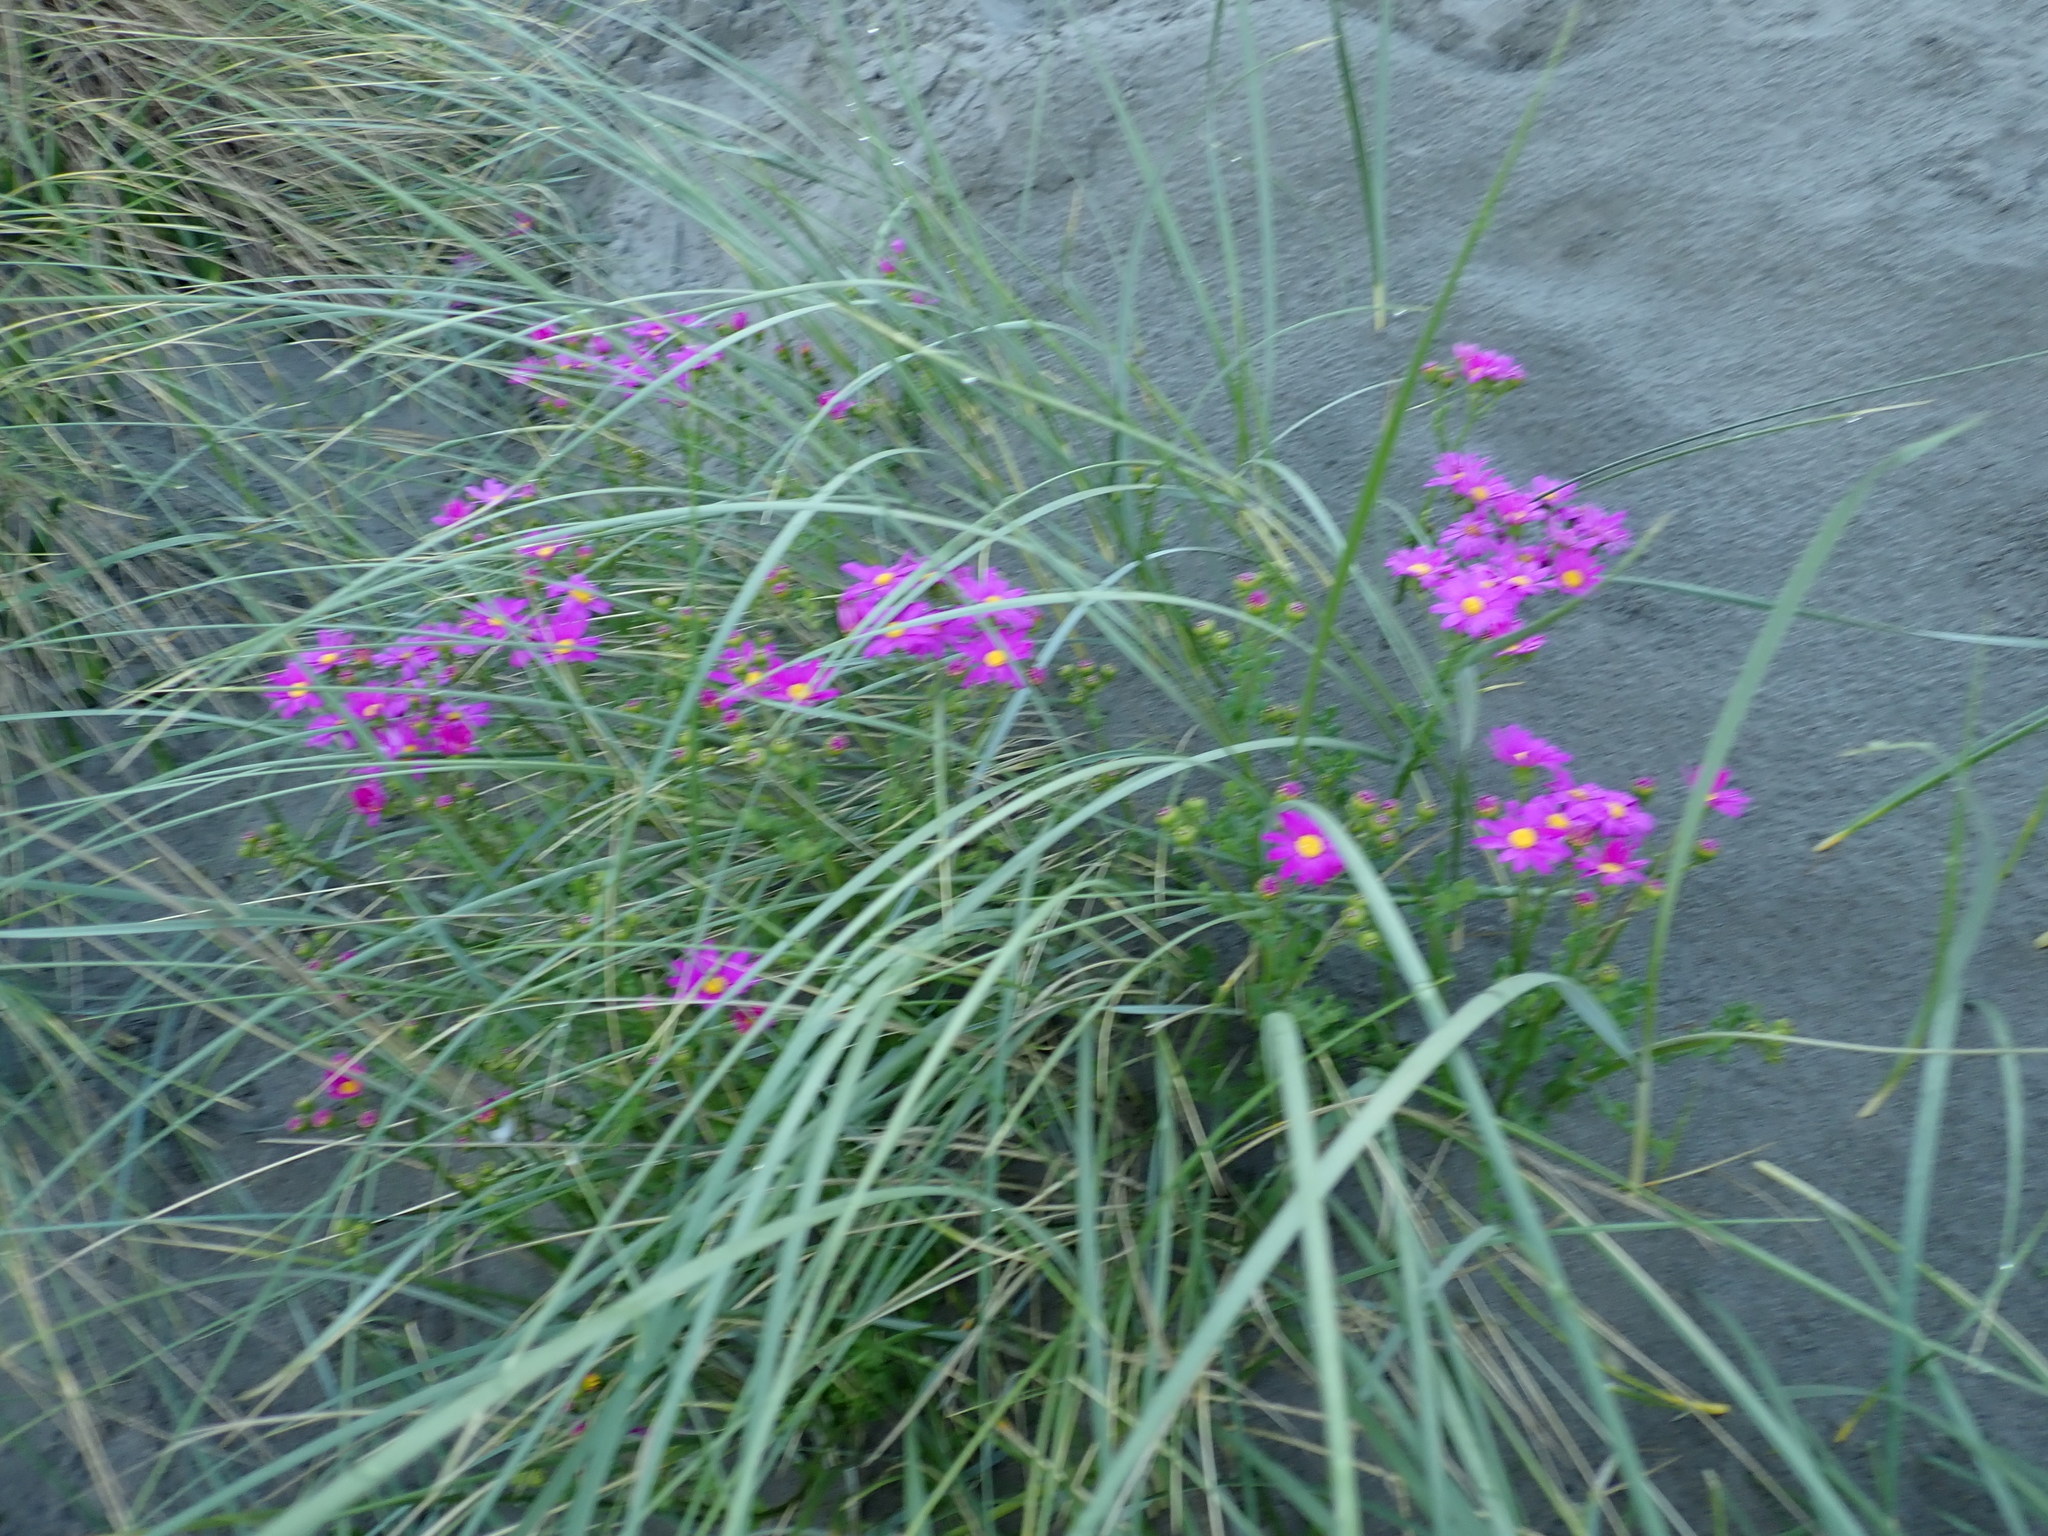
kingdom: Plantae
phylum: Tracheophyta
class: Magnoliopsida
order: Asterales
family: Asteraceae
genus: Senecio
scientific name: Senecio elegans
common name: Purple groundsel
